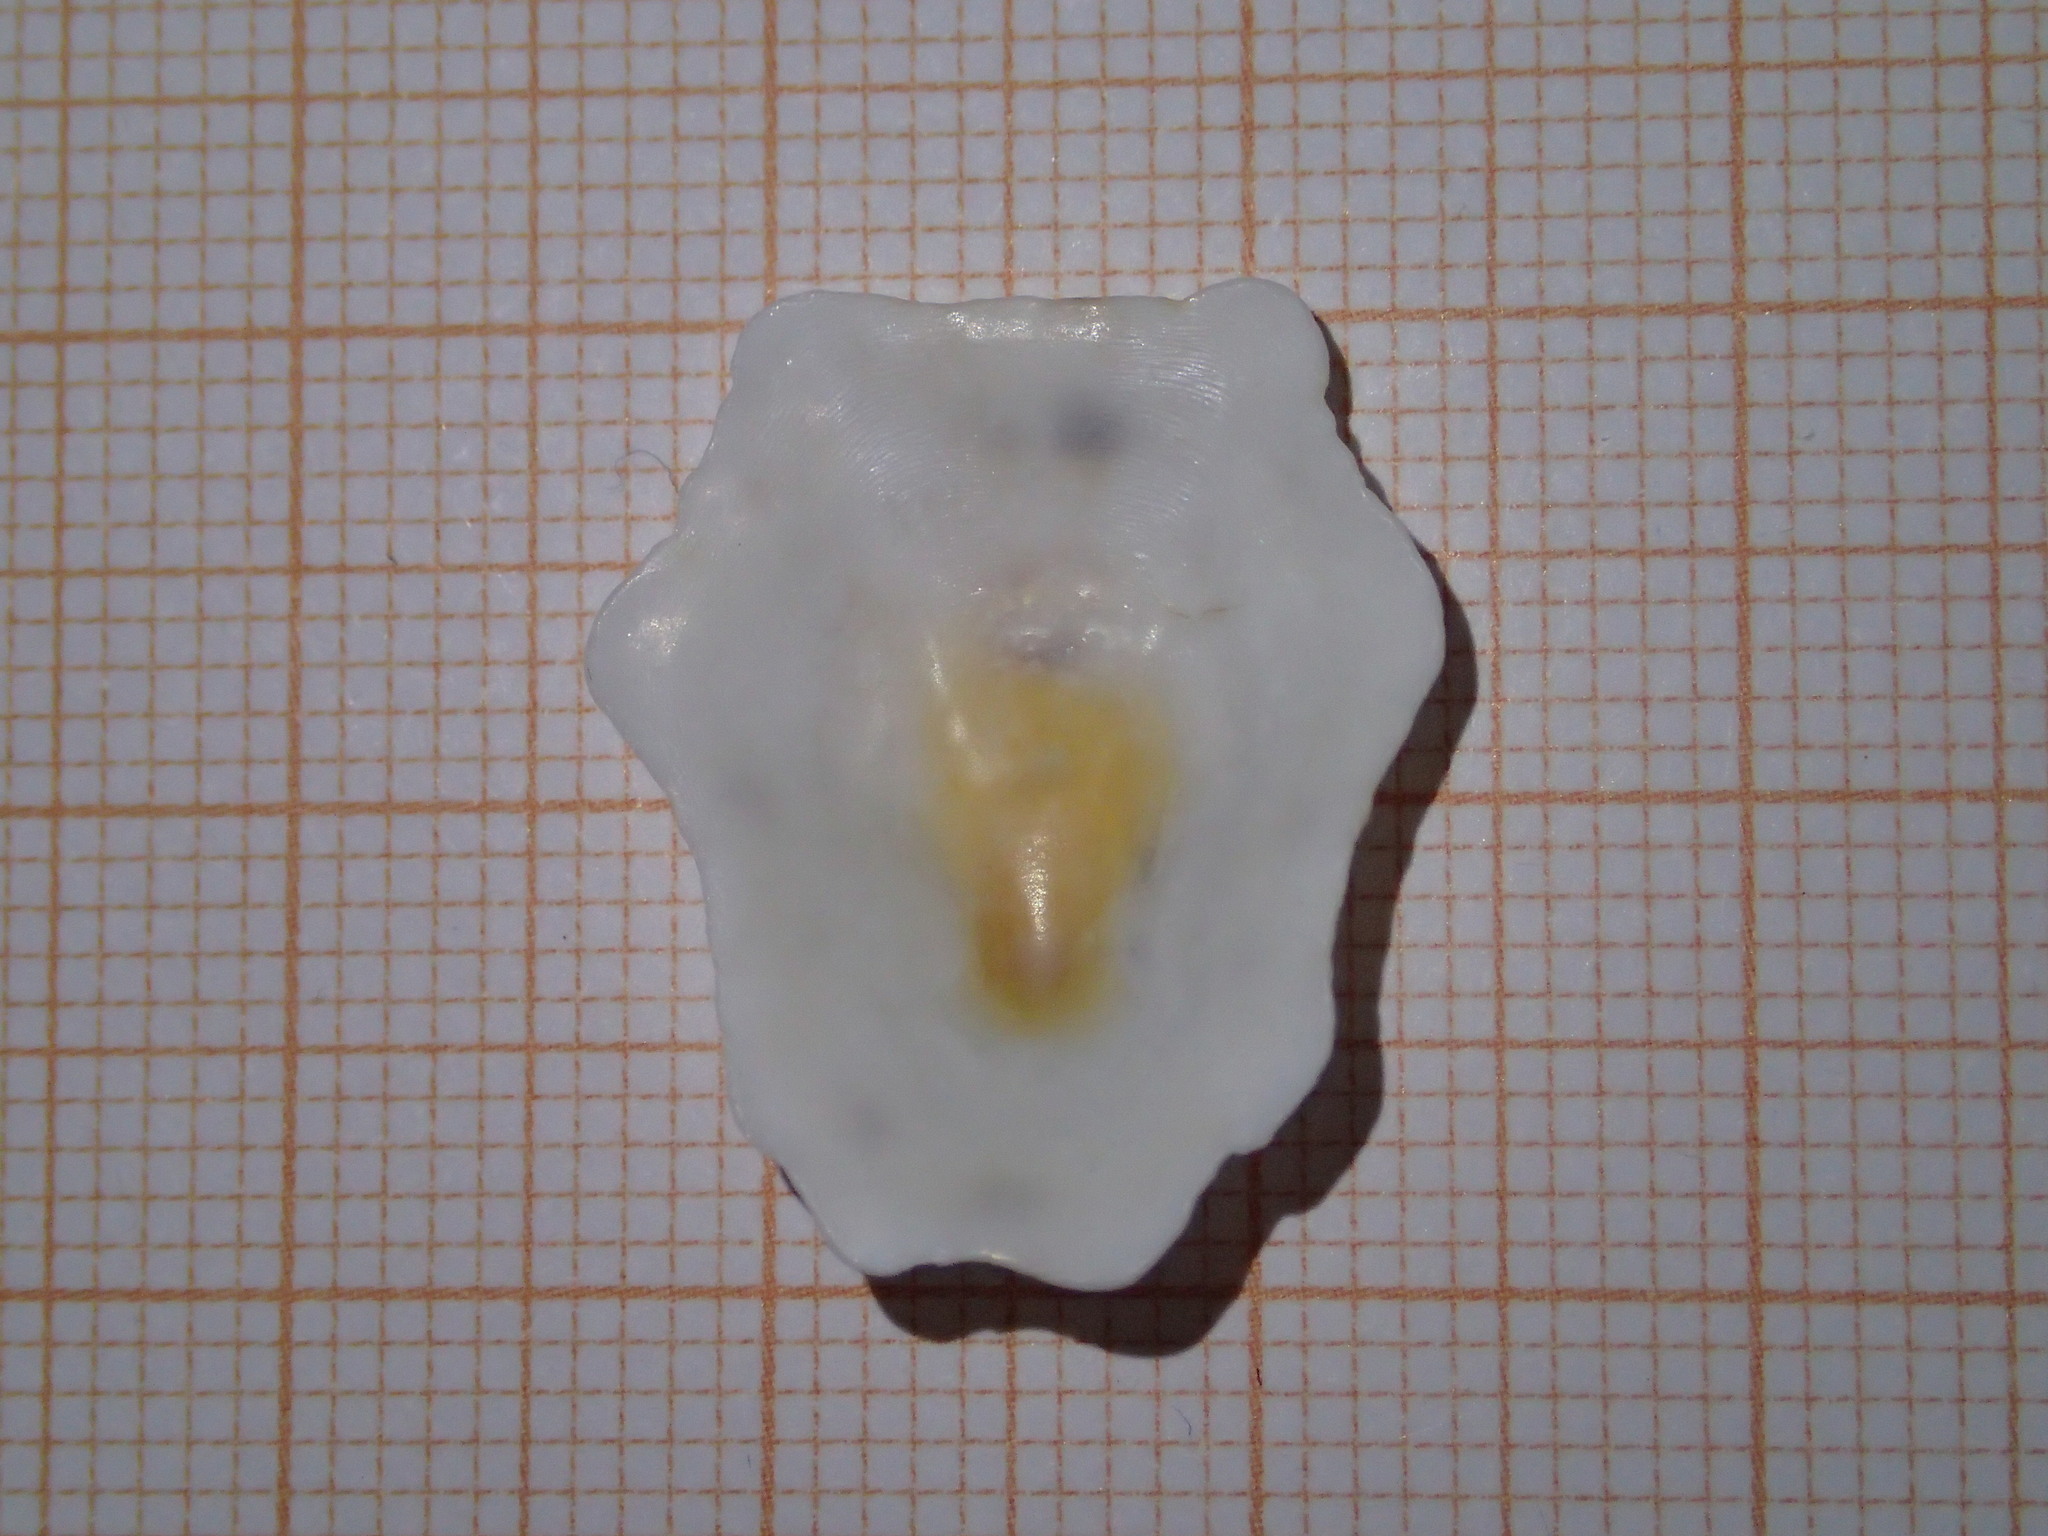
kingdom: Animalia
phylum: Mollusca
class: Gastropoda
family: Patellidae
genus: Patella
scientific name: Patella caerulea
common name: Mediterranean limpet
